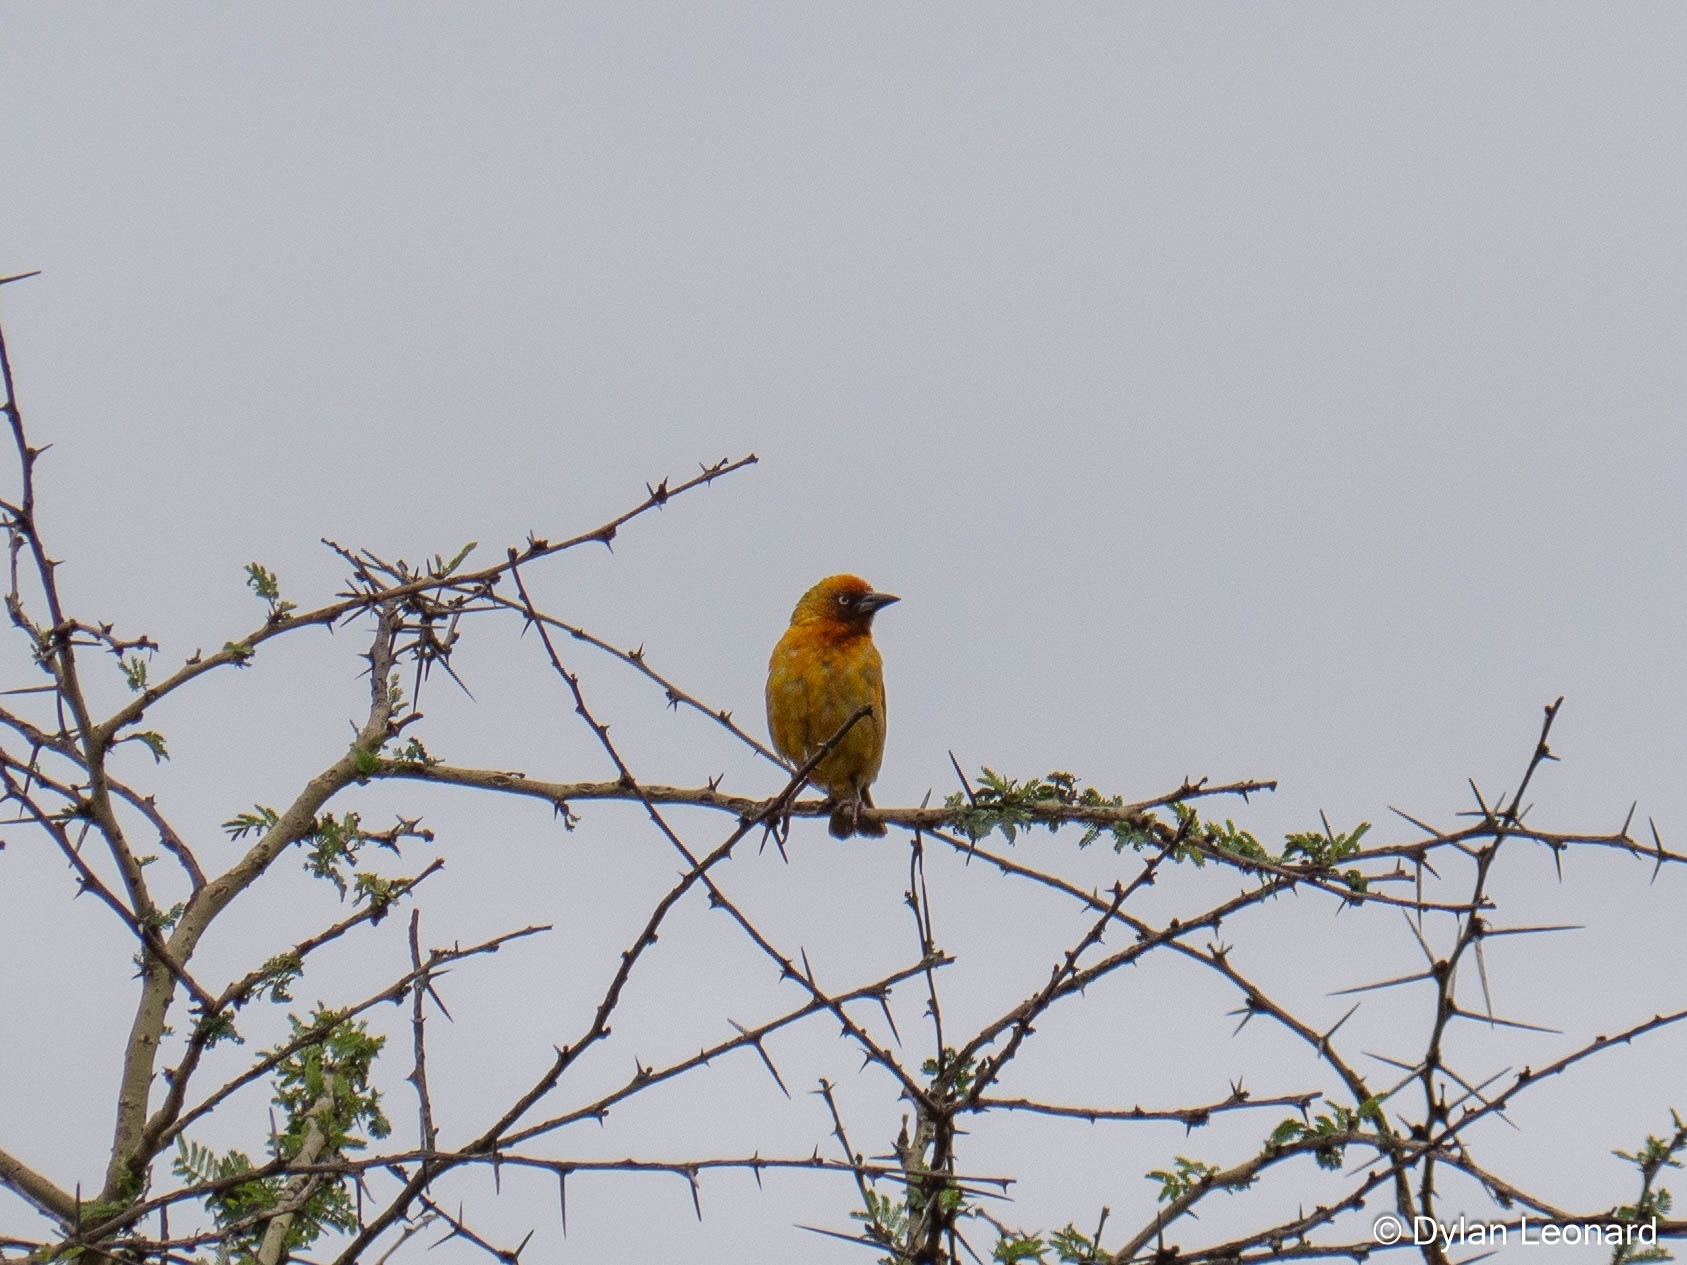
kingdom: Animalia
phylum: Chordata
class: Aves
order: Passeriformes
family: Ploceidae
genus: Ploceus
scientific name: Ploceus capensis
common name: Cape weaver
